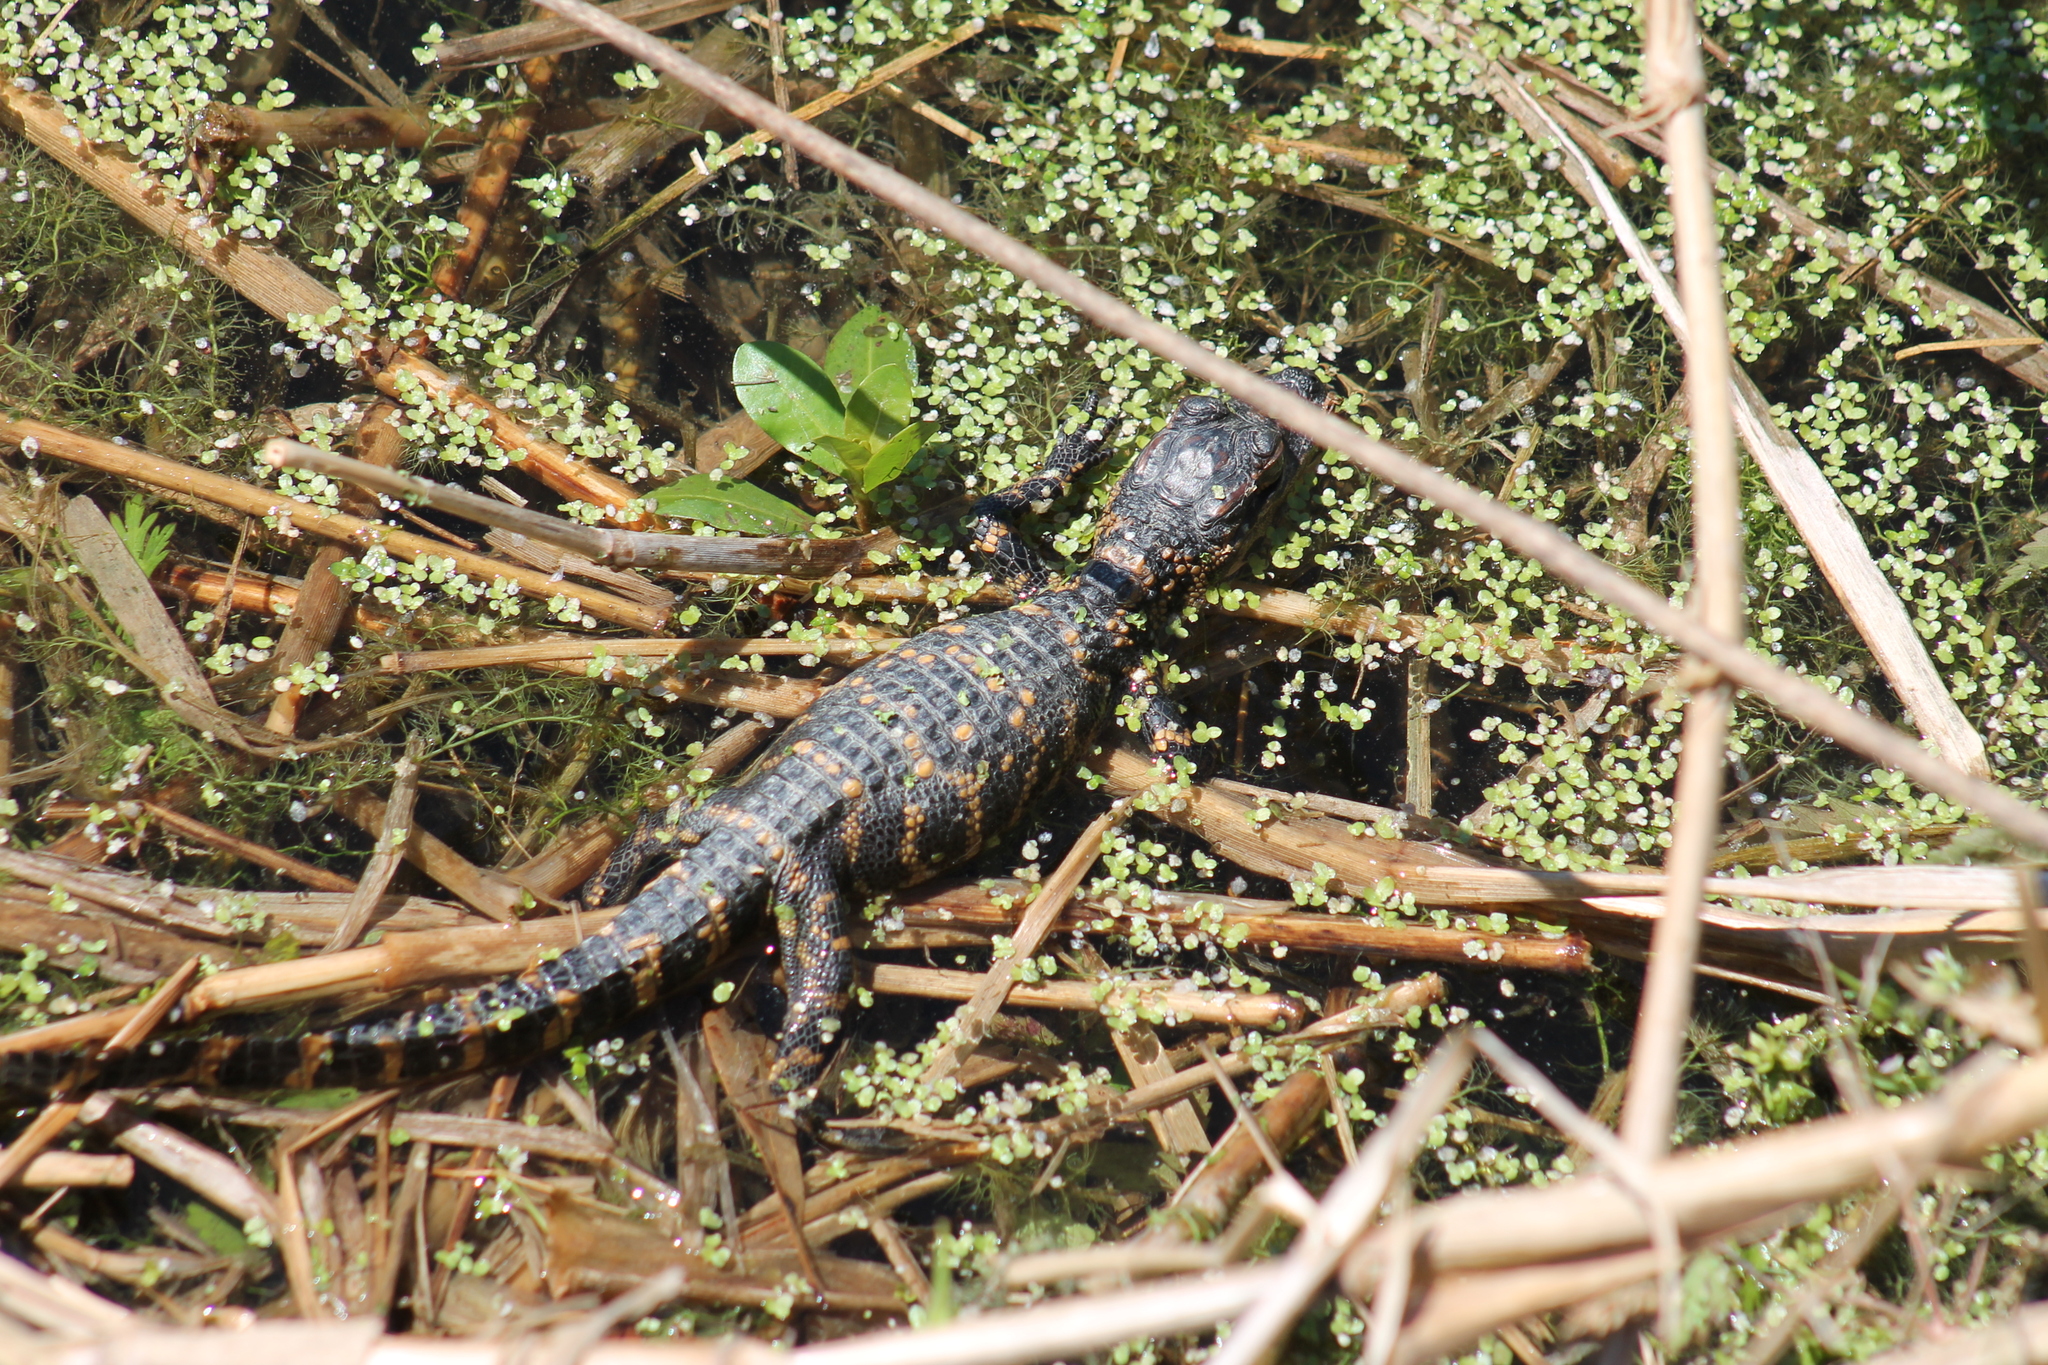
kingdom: Animalia
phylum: Chordata
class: Crocodylia
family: Alligatoridae
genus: Alligator
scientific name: Alligator mississippiensis
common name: American alligator
